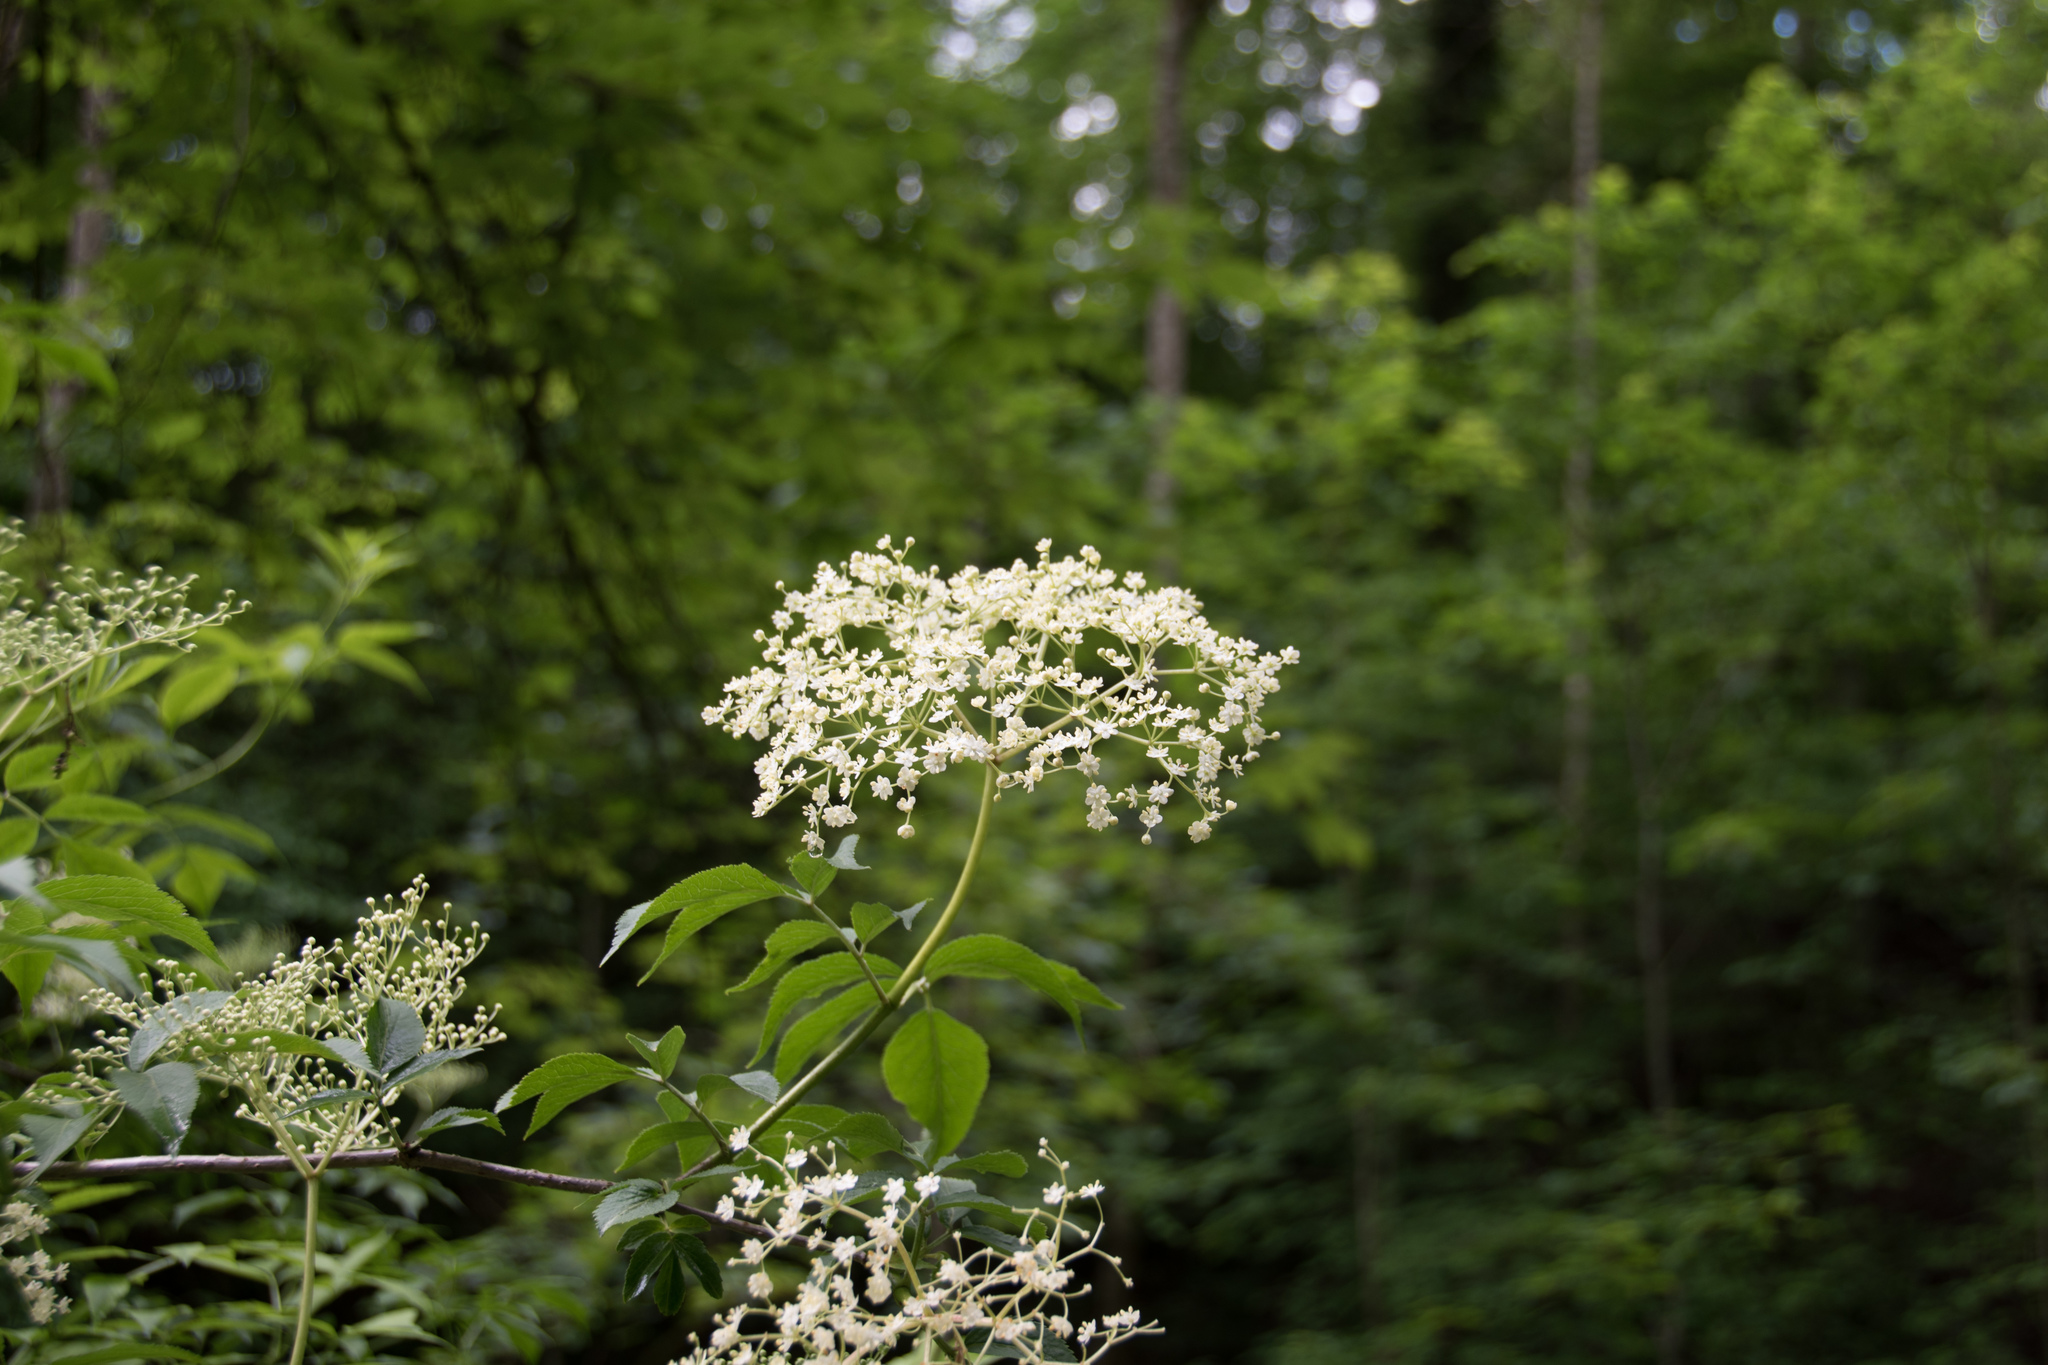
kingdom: Plantae
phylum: Tracheophyta
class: Magnoliopsida
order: Dipsacales
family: Viburnaceae
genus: Sambucus
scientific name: Sambucus nigra
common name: Elder
